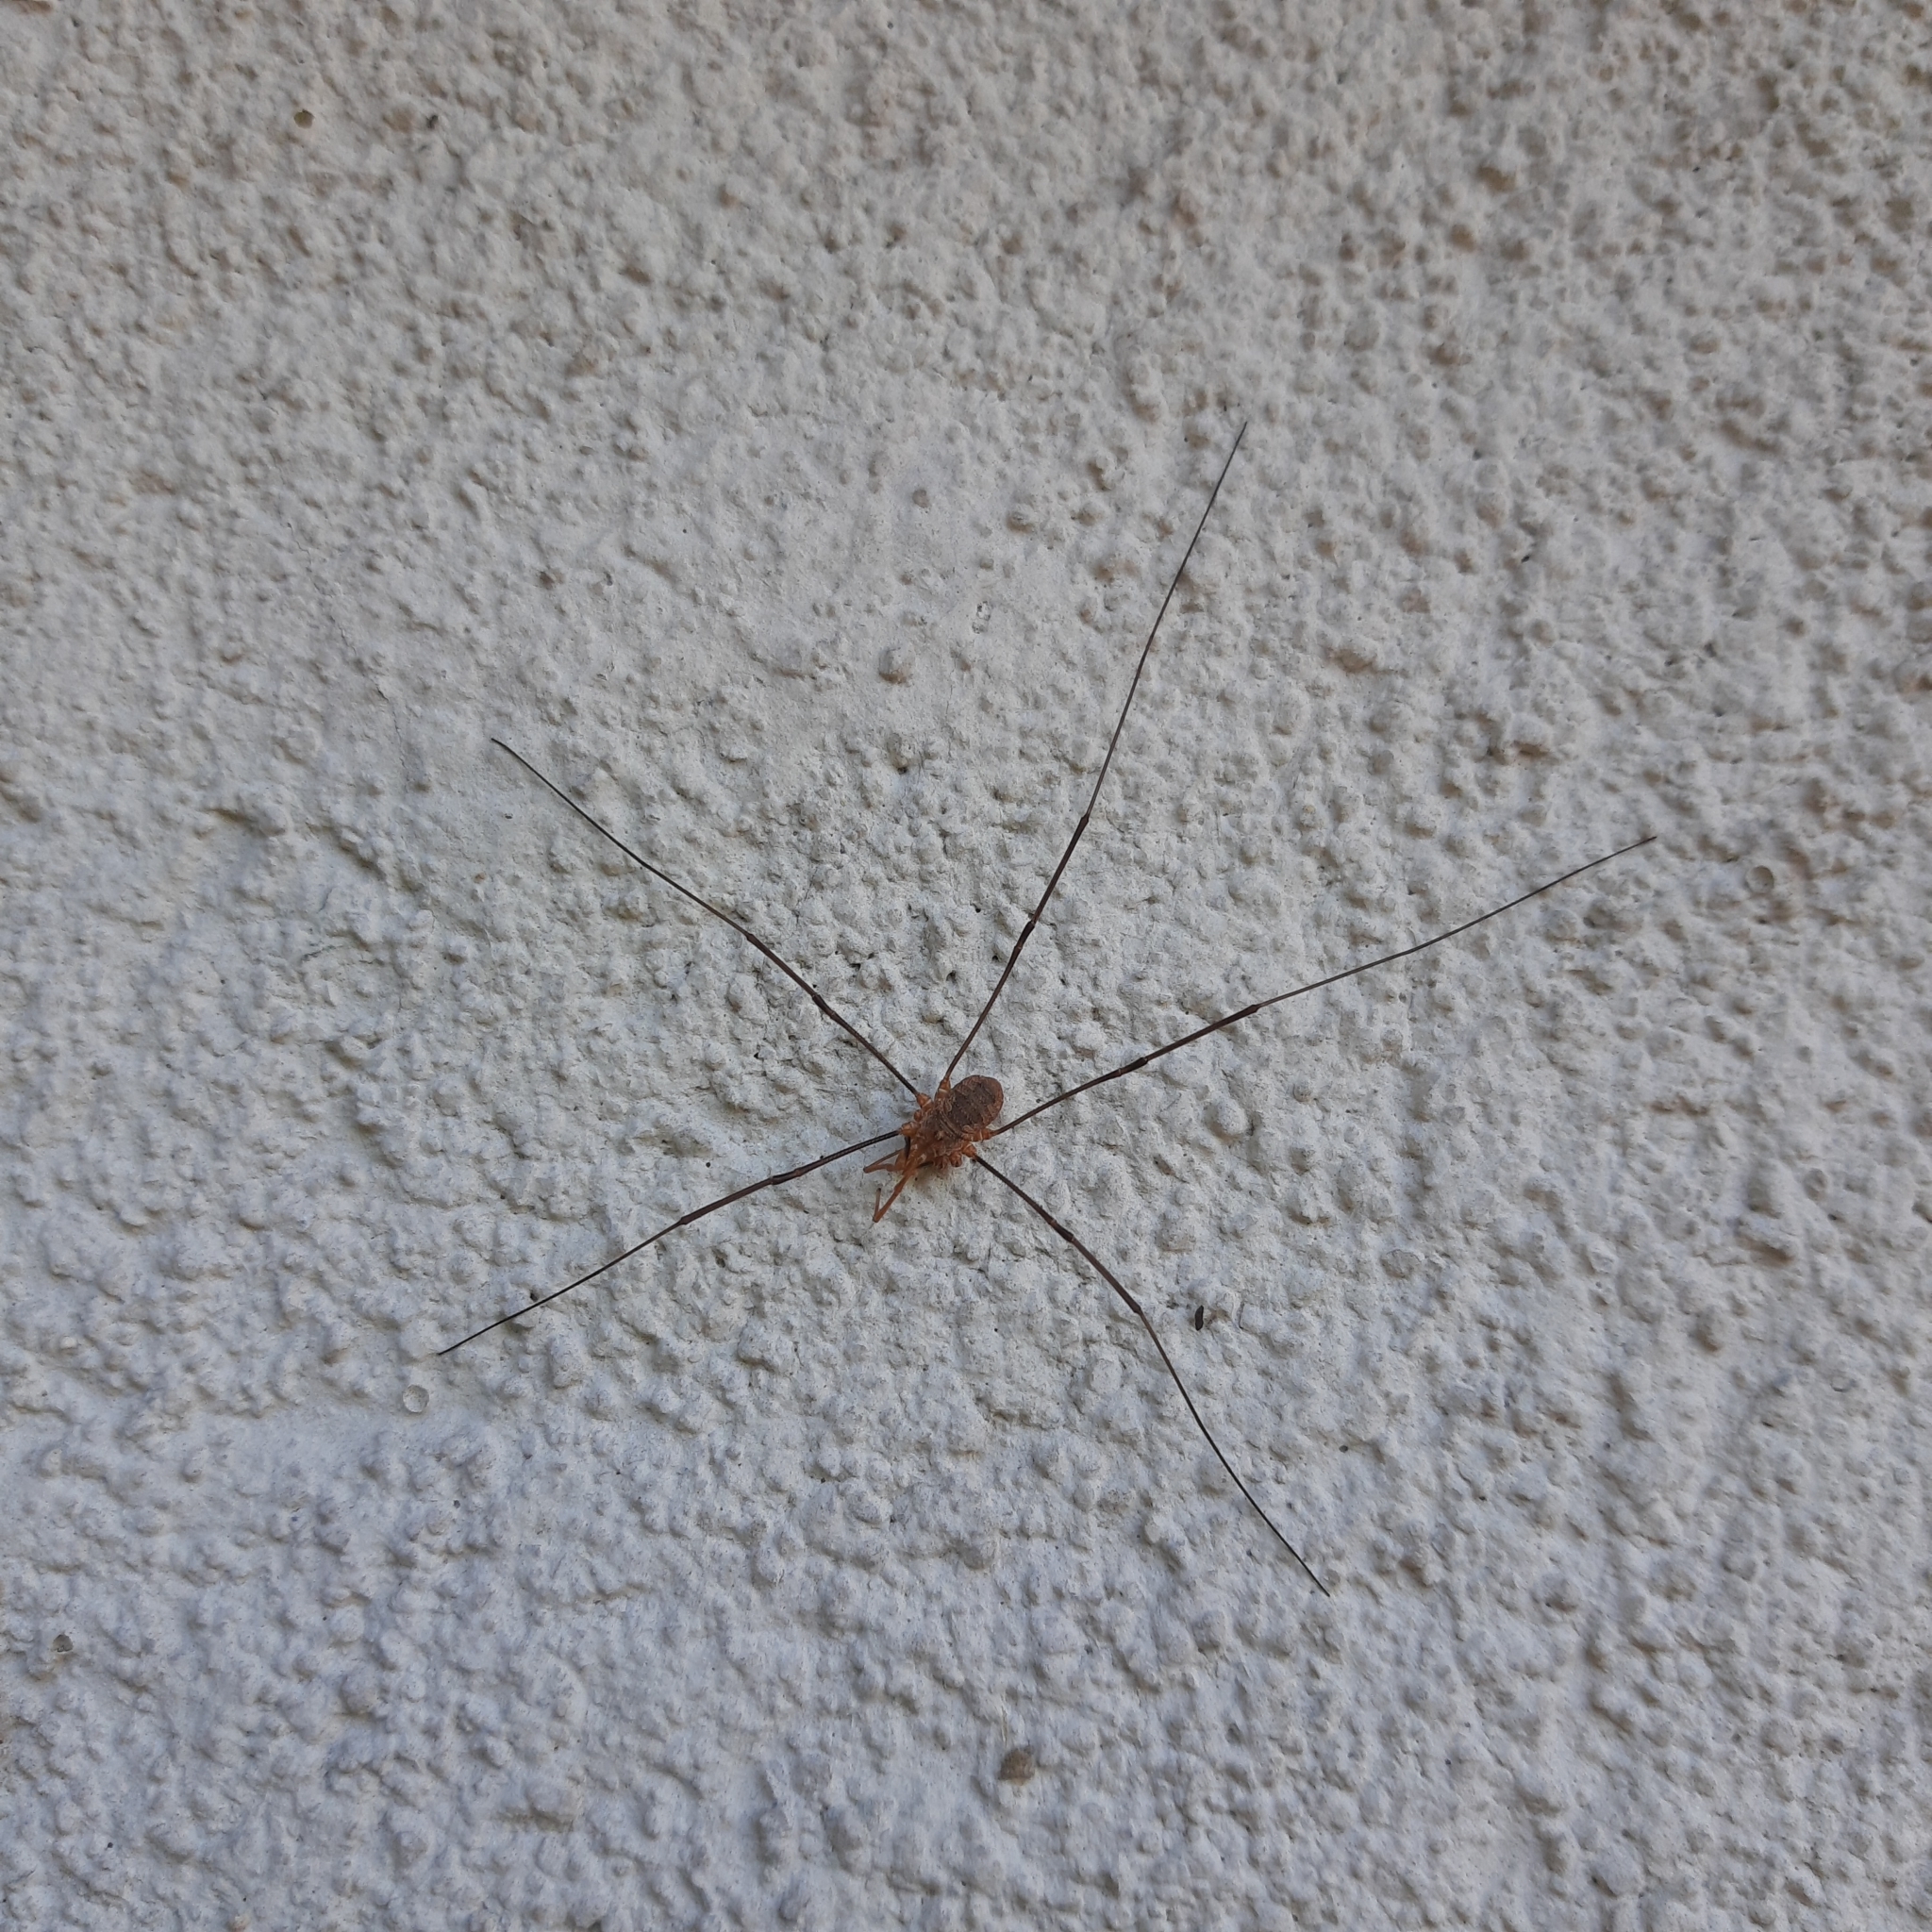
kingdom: Animalia
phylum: Arthropoda
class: Arachnida
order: Opiliones
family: Phalangiidae
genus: Phalangium
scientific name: Phalangium opilio
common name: Daddy longleg
